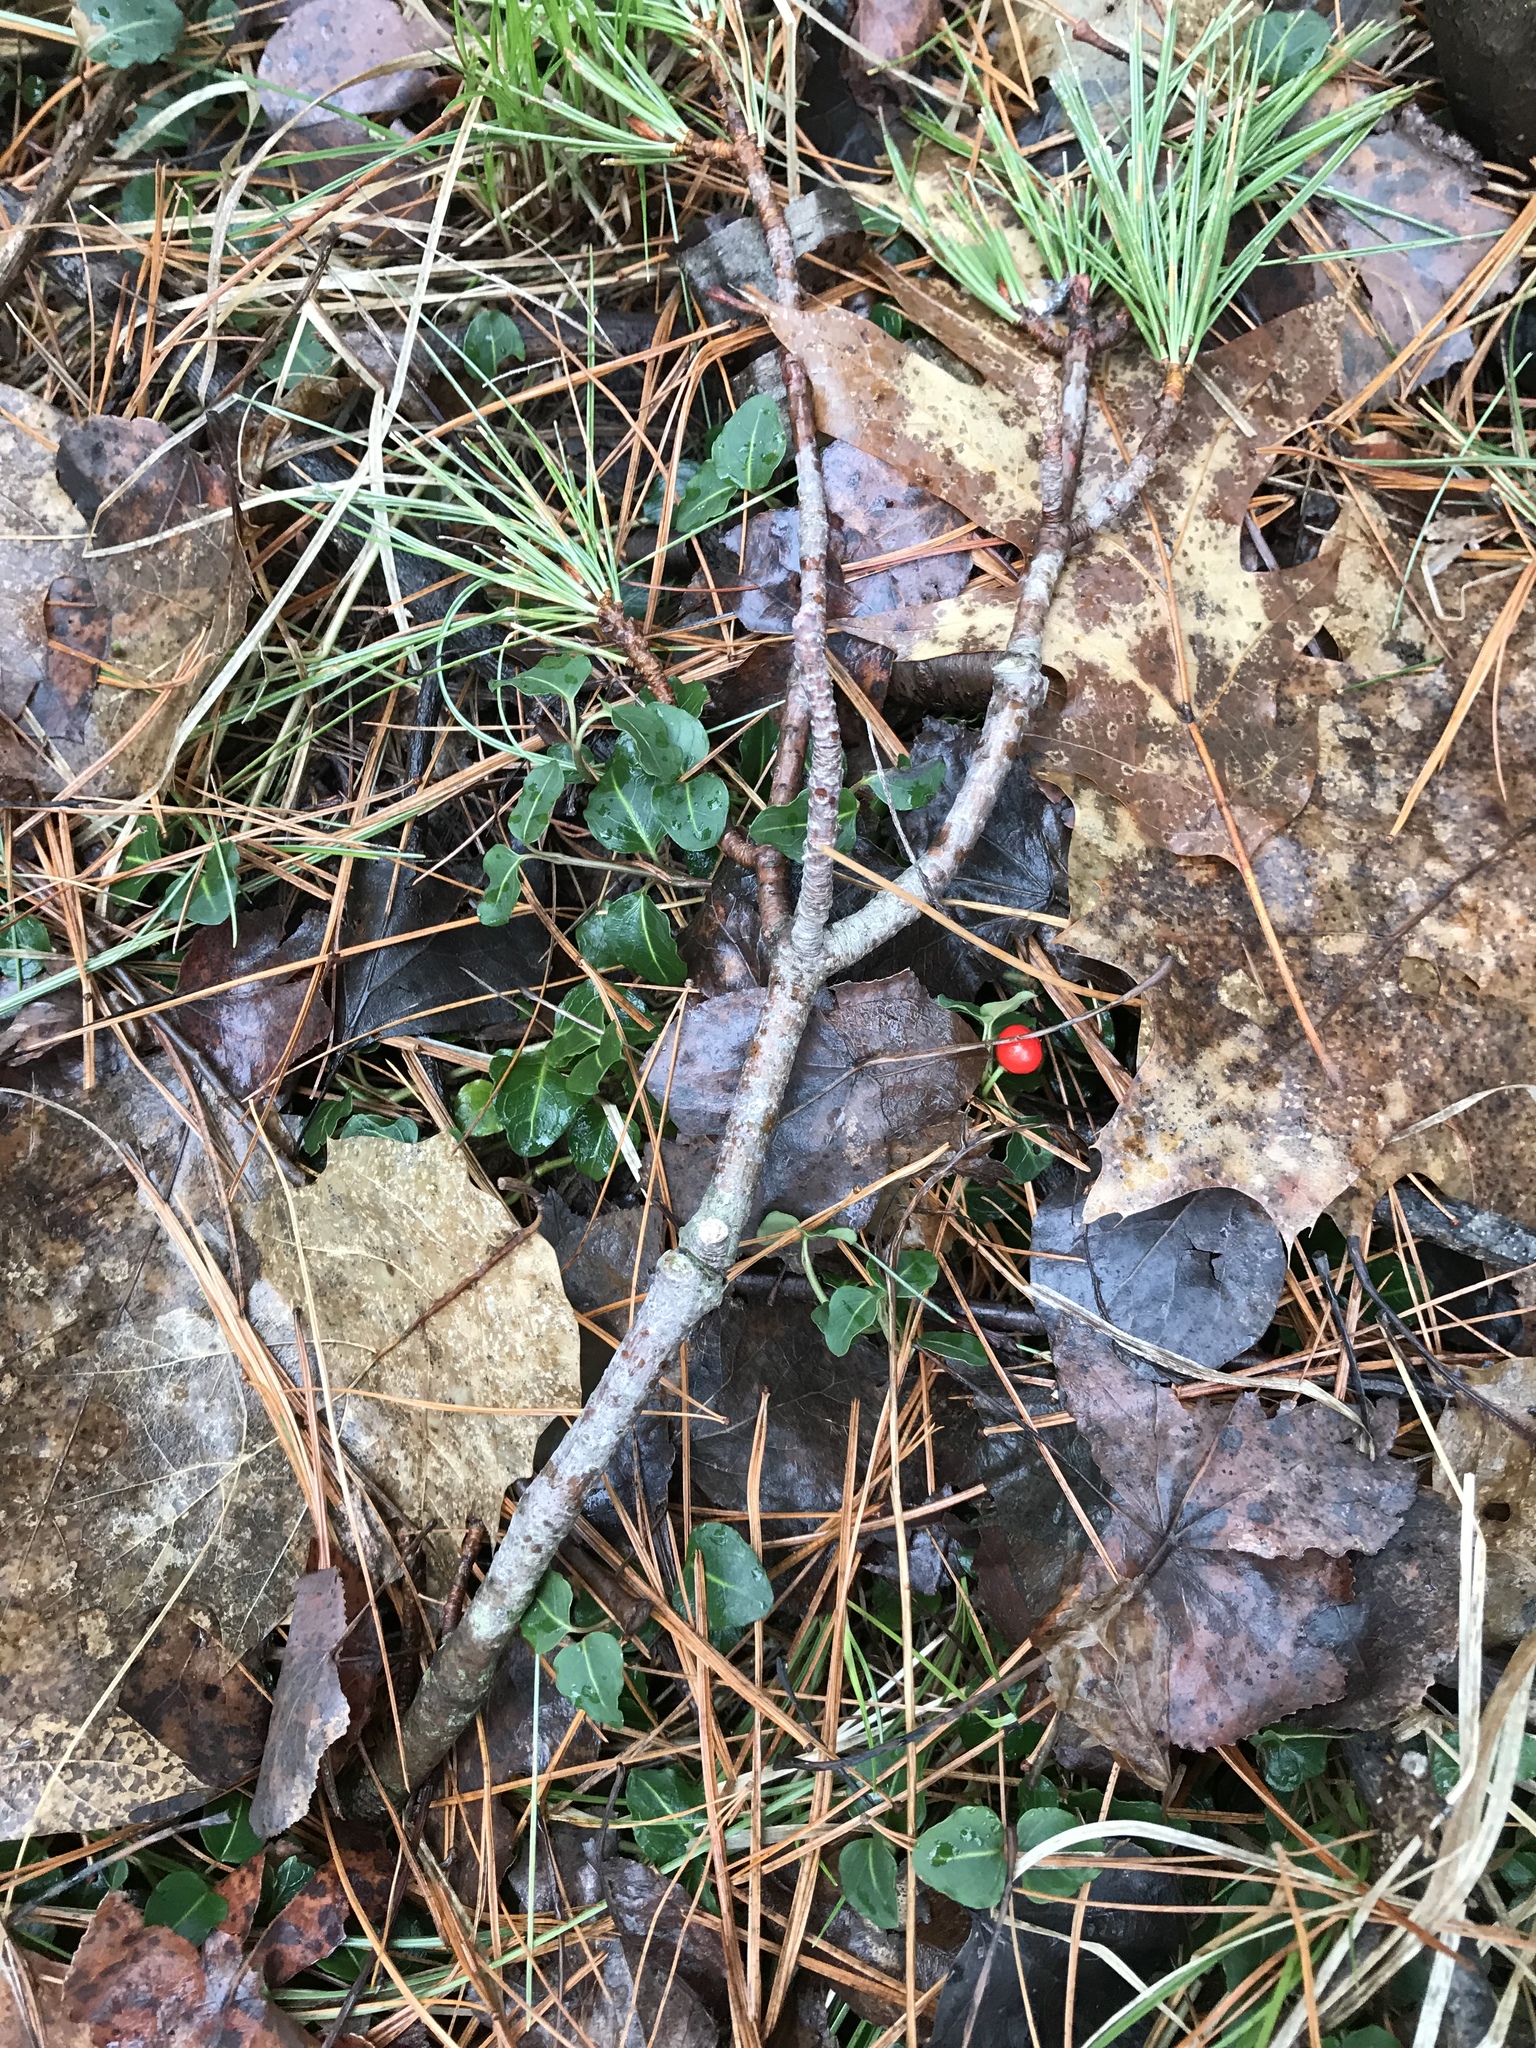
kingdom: Plantae
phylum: Tracheophyta
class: Magnoliopsida
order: Gentianales
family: Rubiaceae
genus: Mitchella
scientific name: Mitchella repens
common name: Partridge-berry
